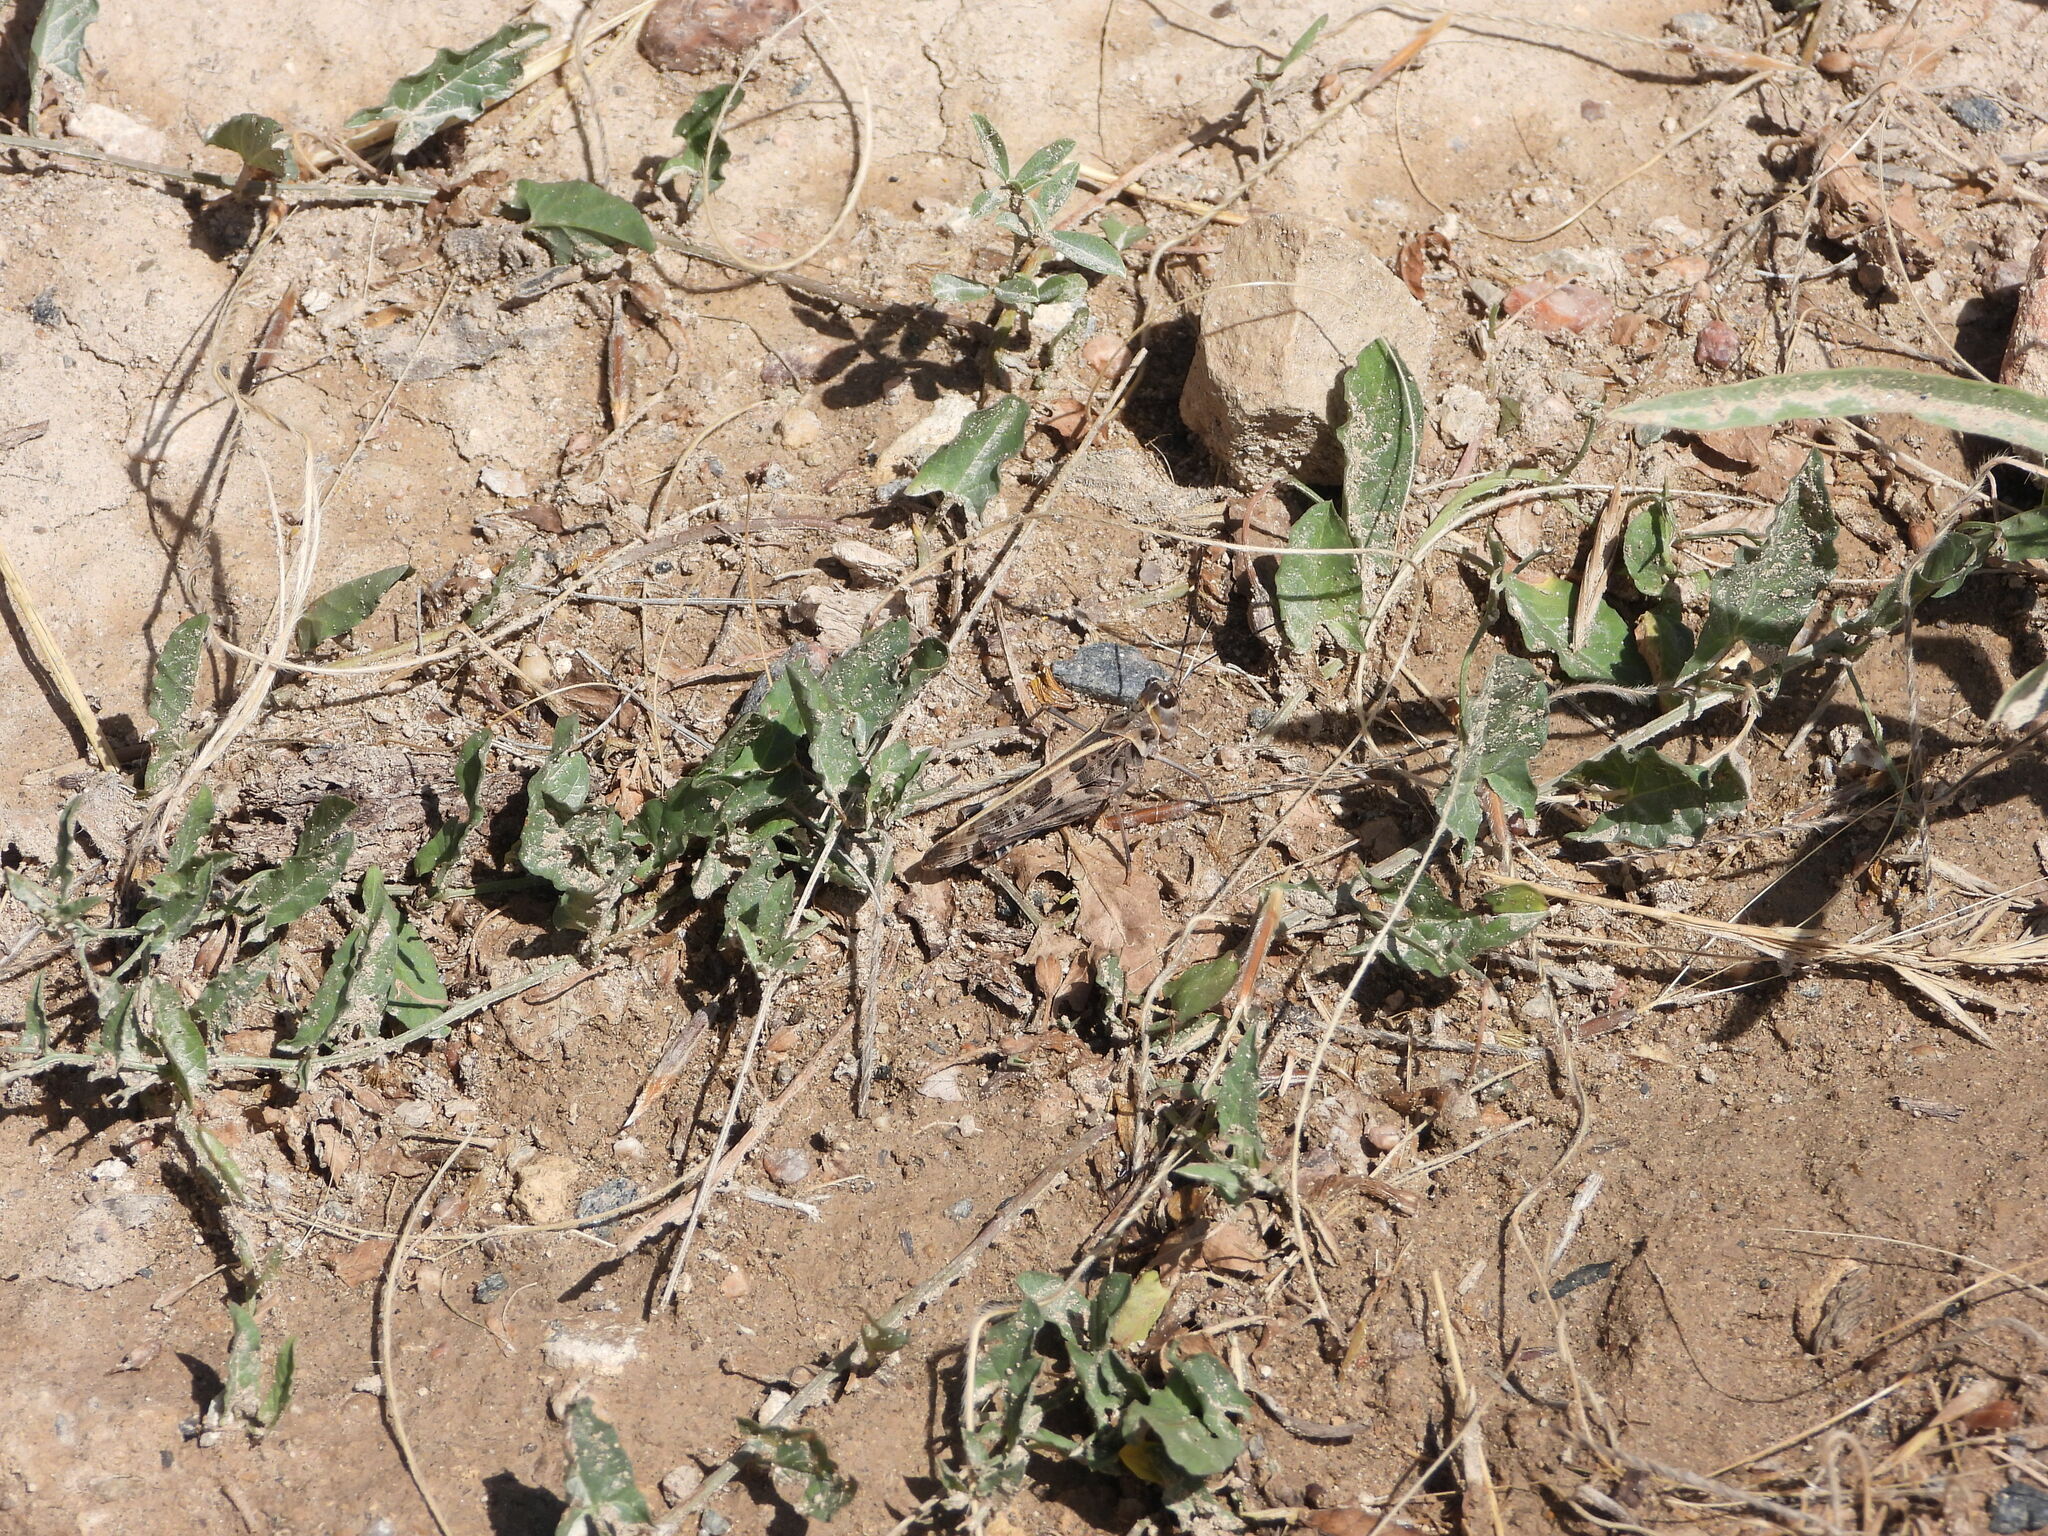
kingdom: Animalia
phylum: Arthropoda
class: Insecta
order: Orthoptera
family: Acrididae
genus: Metator
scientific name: Metator pardalinus
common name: Blue-legged grasshopper
